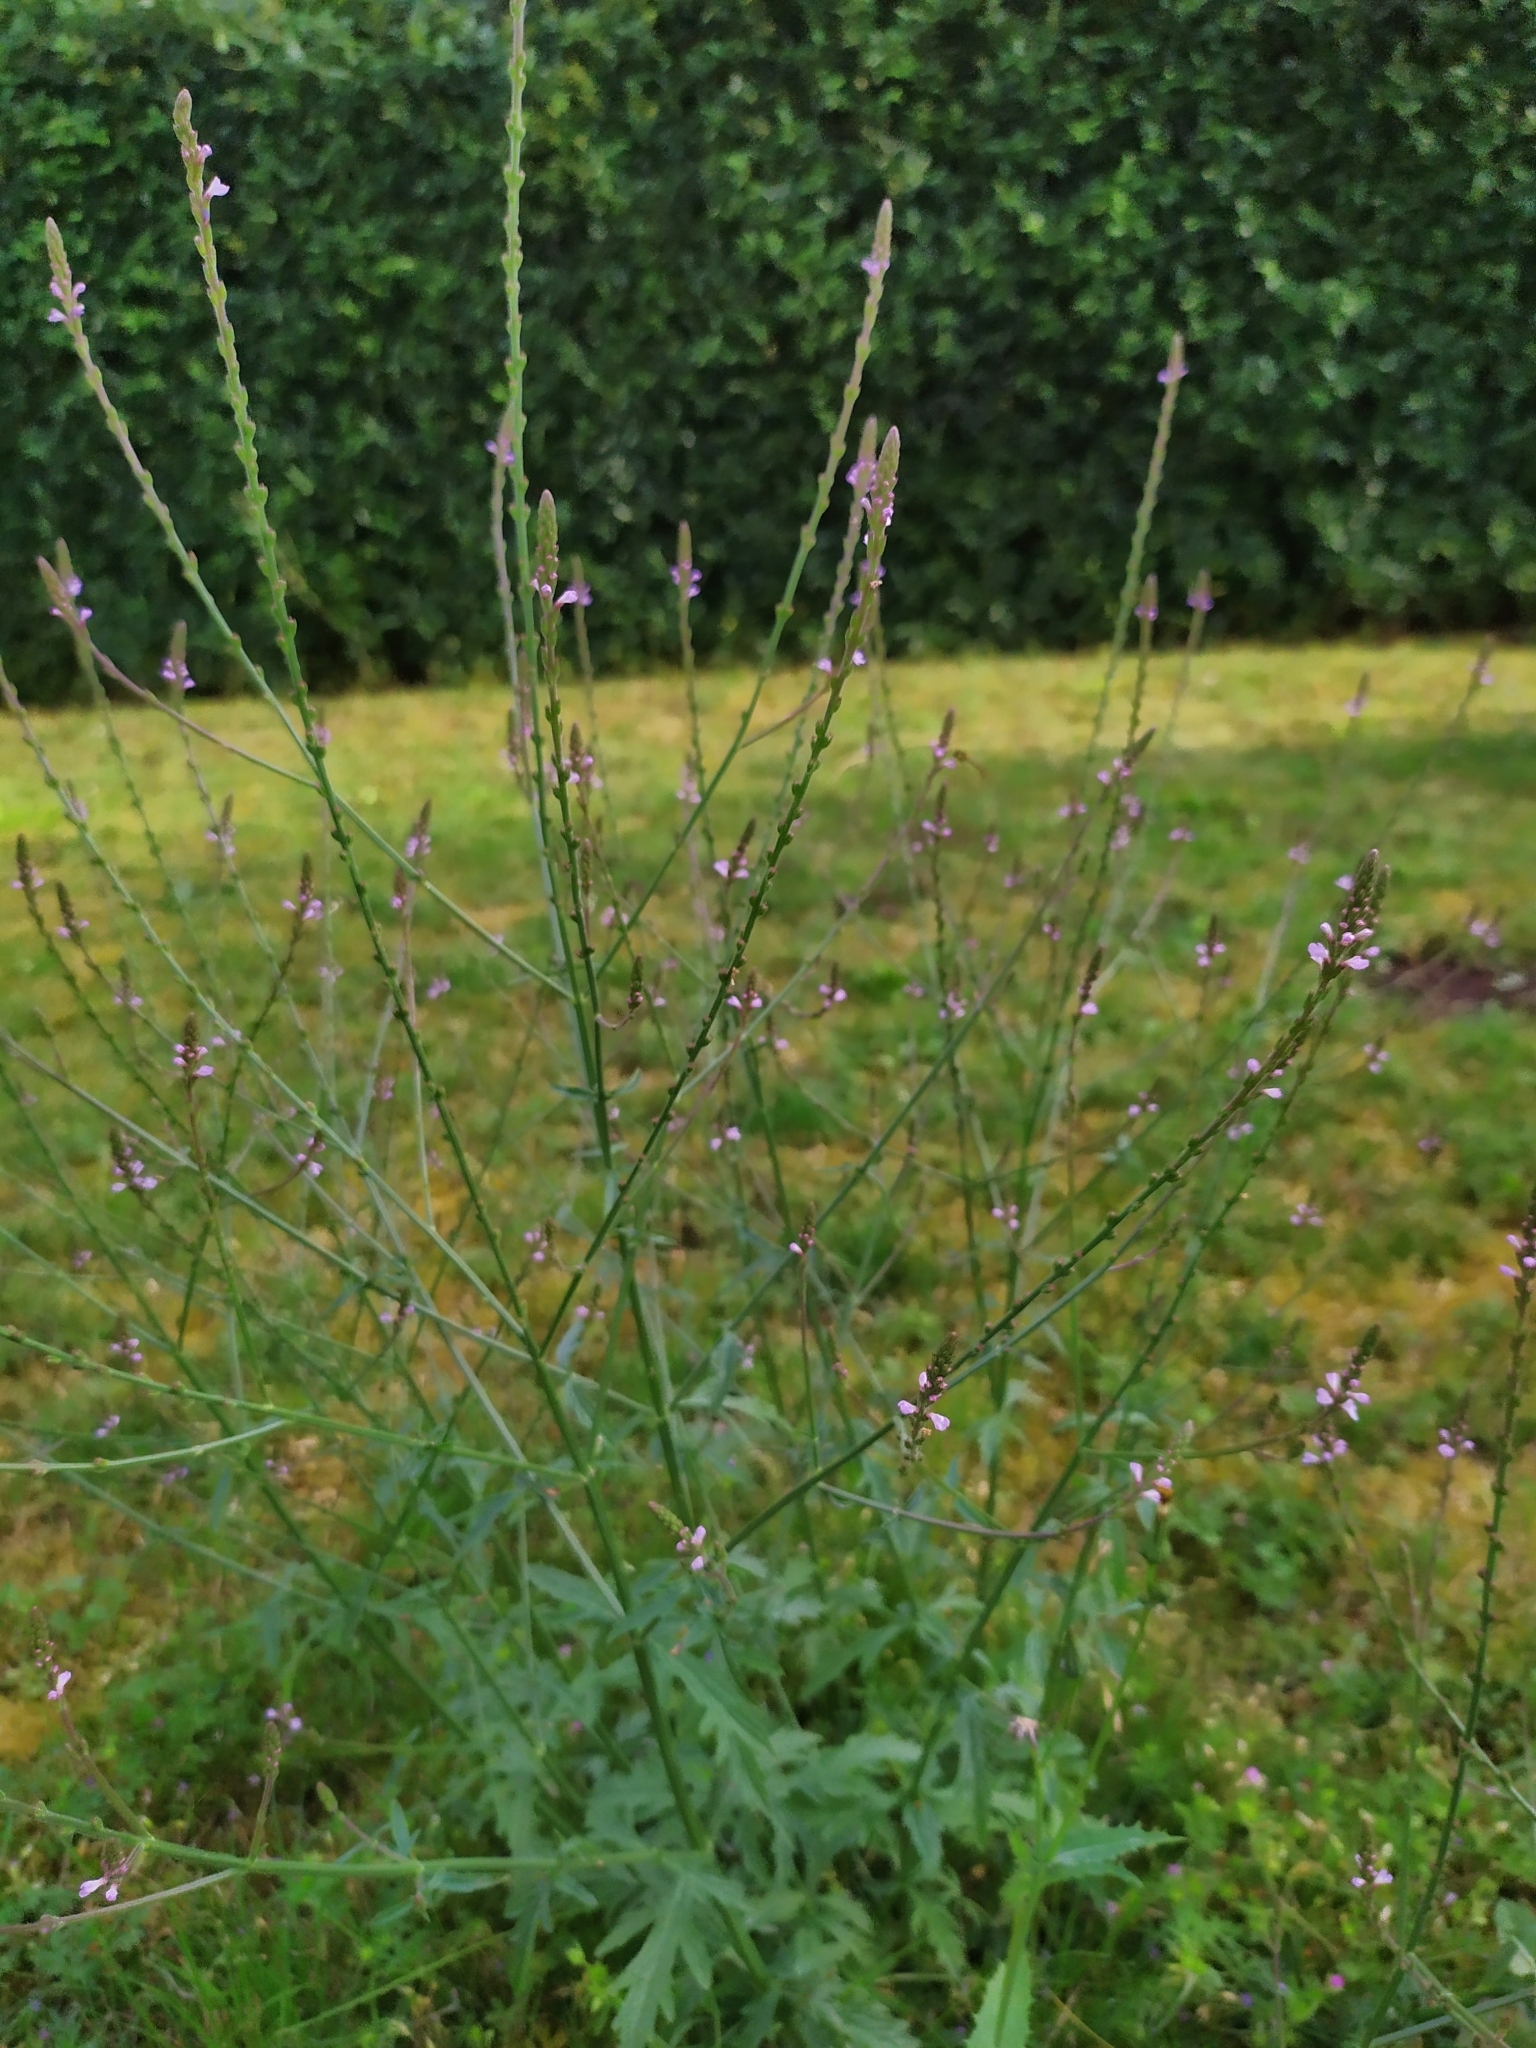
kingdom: Plantae
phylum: Tracheophyta
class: Magnoliopsida
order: Lamiales
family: Verbenaceae
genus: Verbena
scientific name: Verbena officinalis
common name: Vervain
